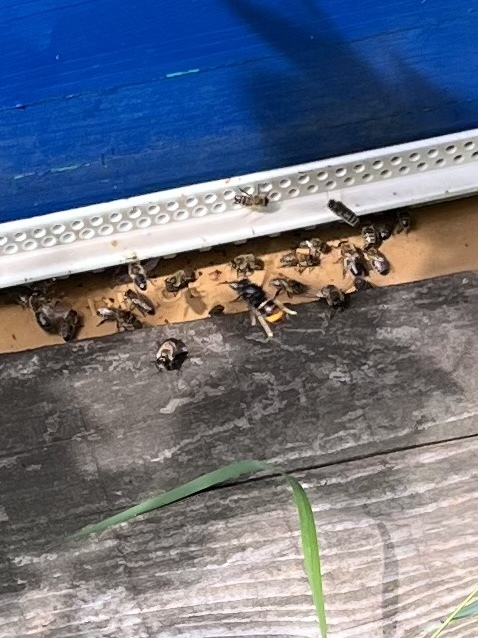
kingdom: Animalia
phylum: Arthropoda
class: Insecta
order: Hymenoptera
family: Vespidae
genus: Vespa
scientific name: Vespa velutina
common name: Asian hornet
